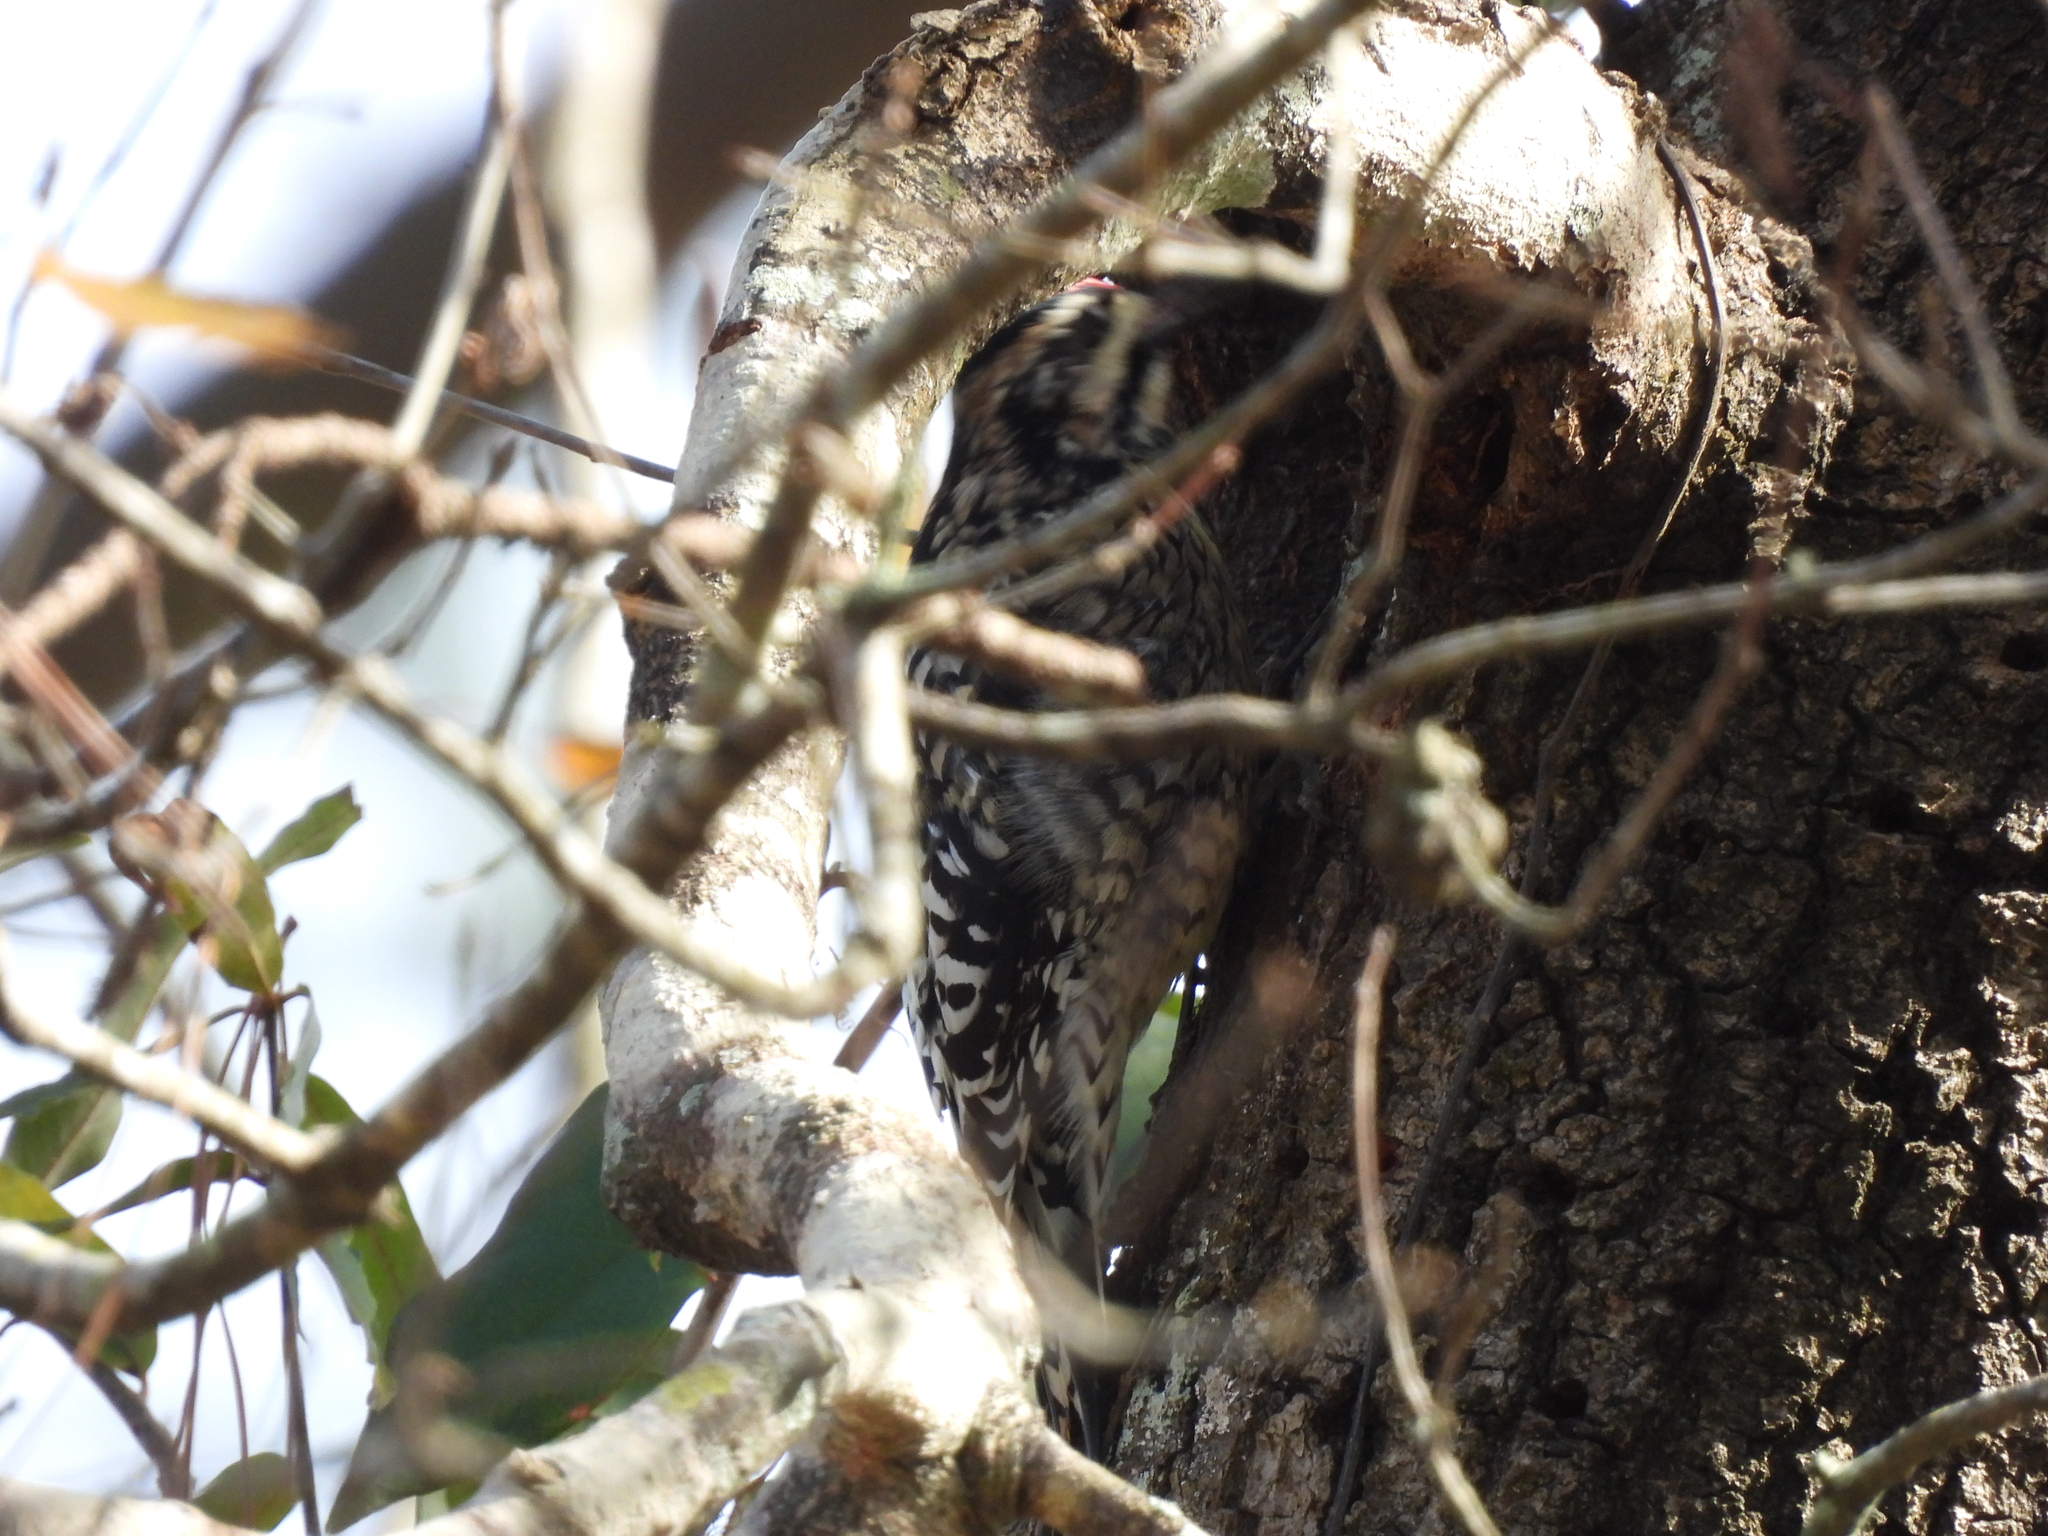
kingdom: Animalia
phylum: Chordata
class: Aves
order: Piciformes
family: Picidae
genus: Sphyrapicus
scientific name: Sphyrapicus varius
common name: Yellow-bellied sapsucker
